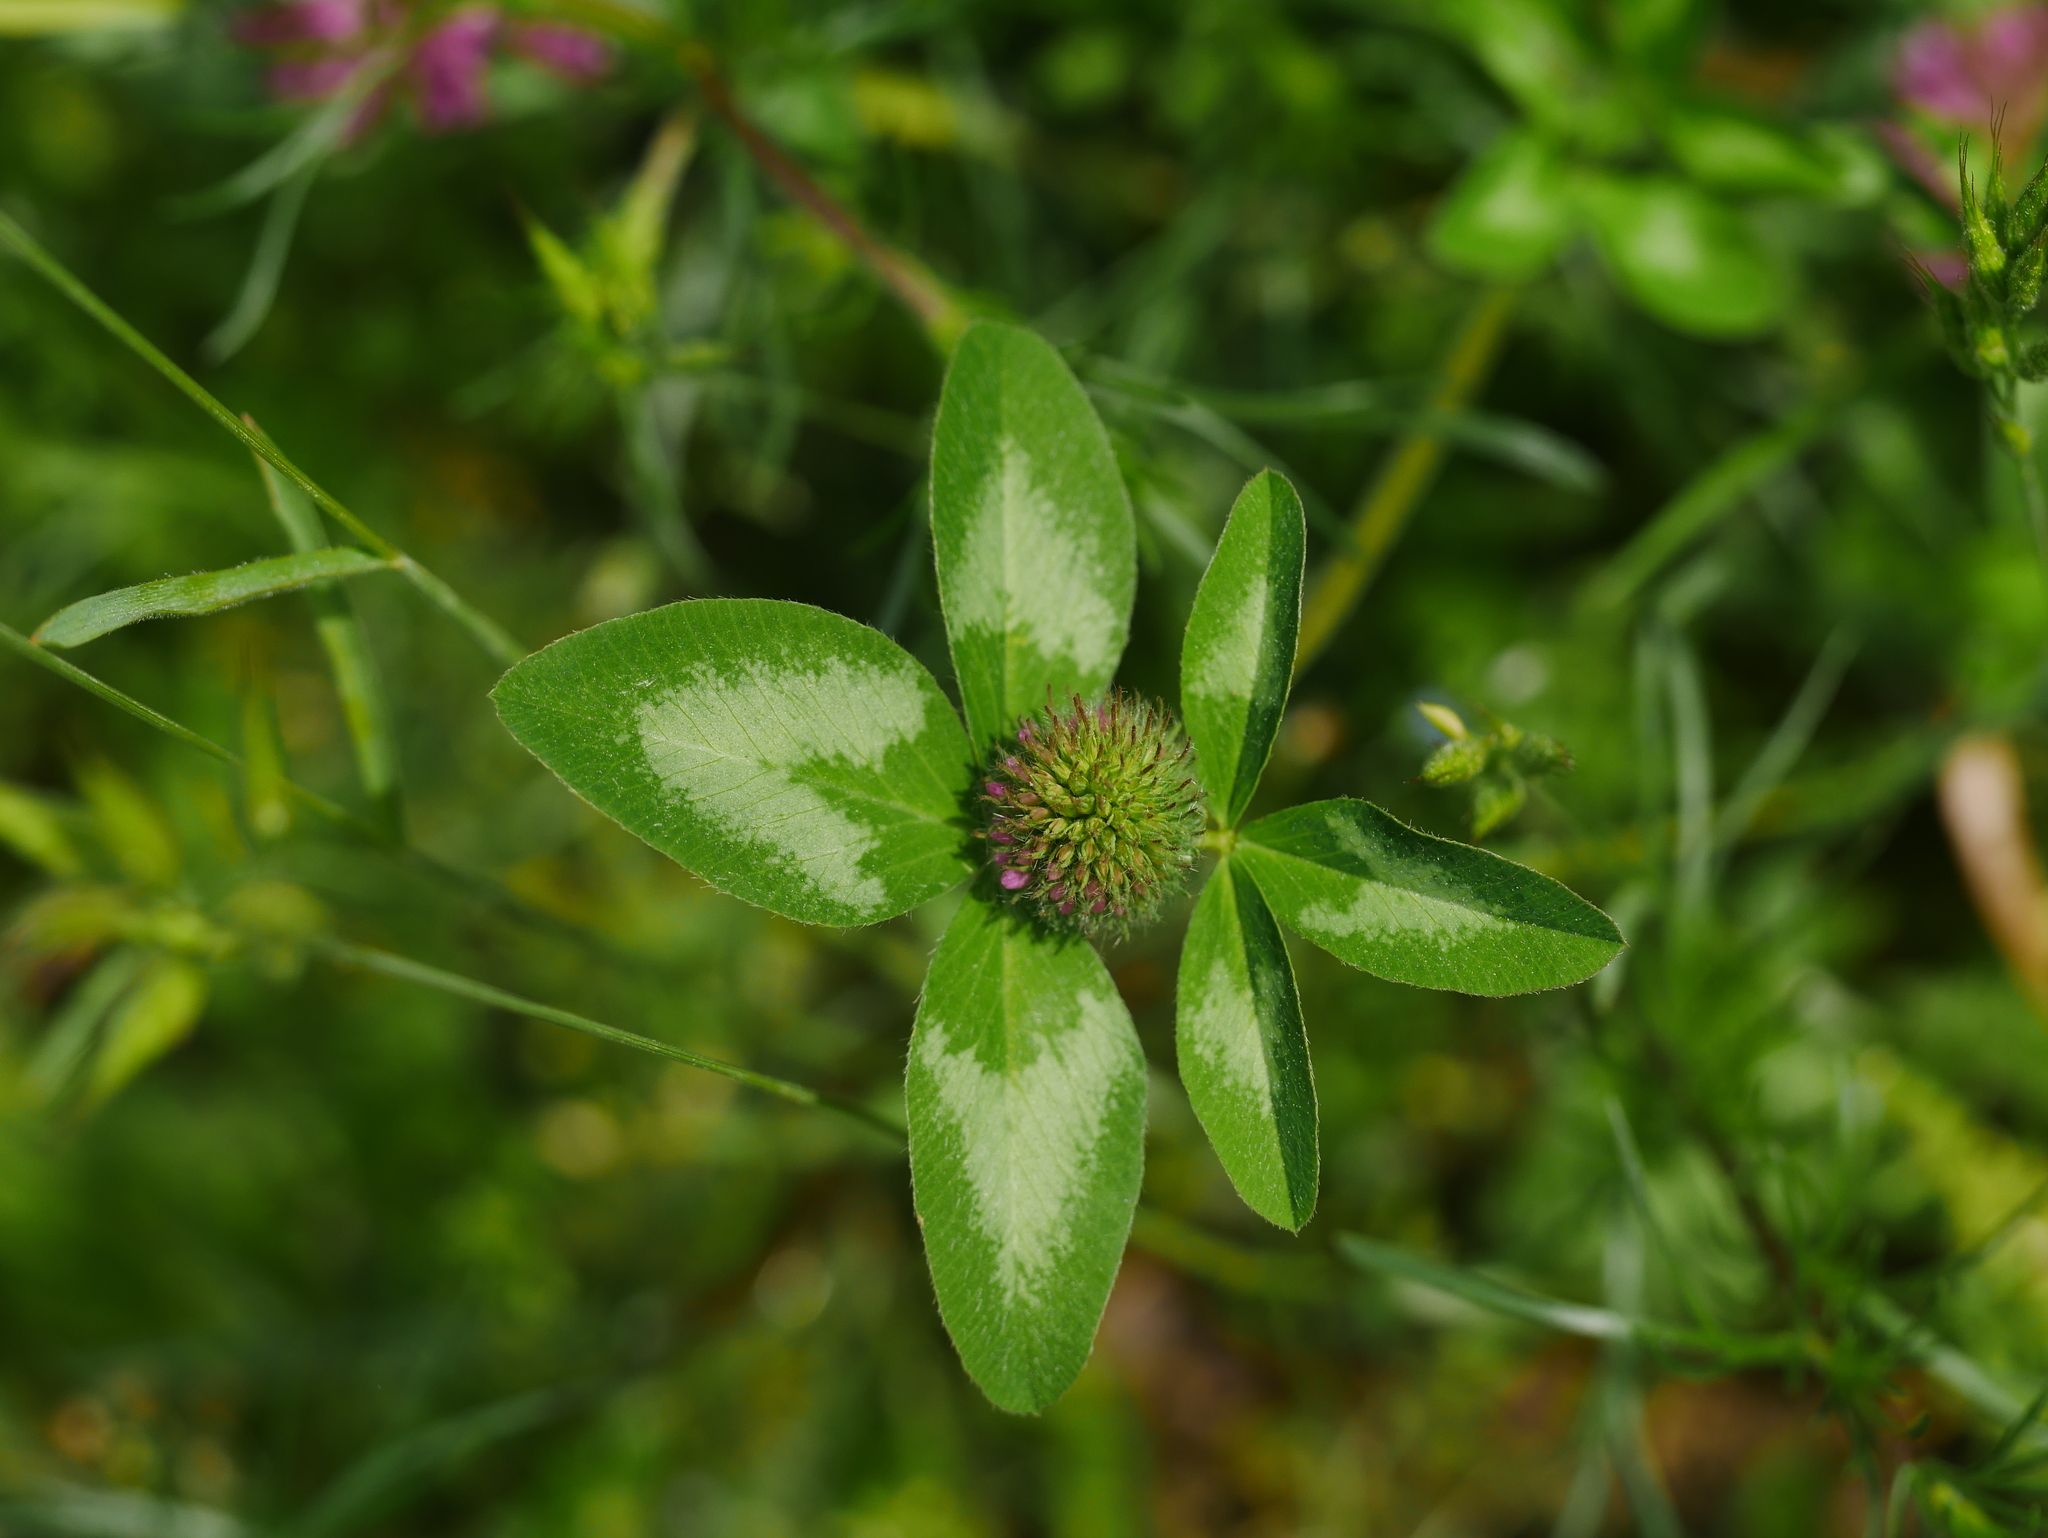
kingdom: Plantae
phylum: Tracheophyta
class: Magnoliopsida
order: Fabales
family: Fabaceae
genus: Trifolium
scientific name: Trifolium pratense
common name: Red clover
